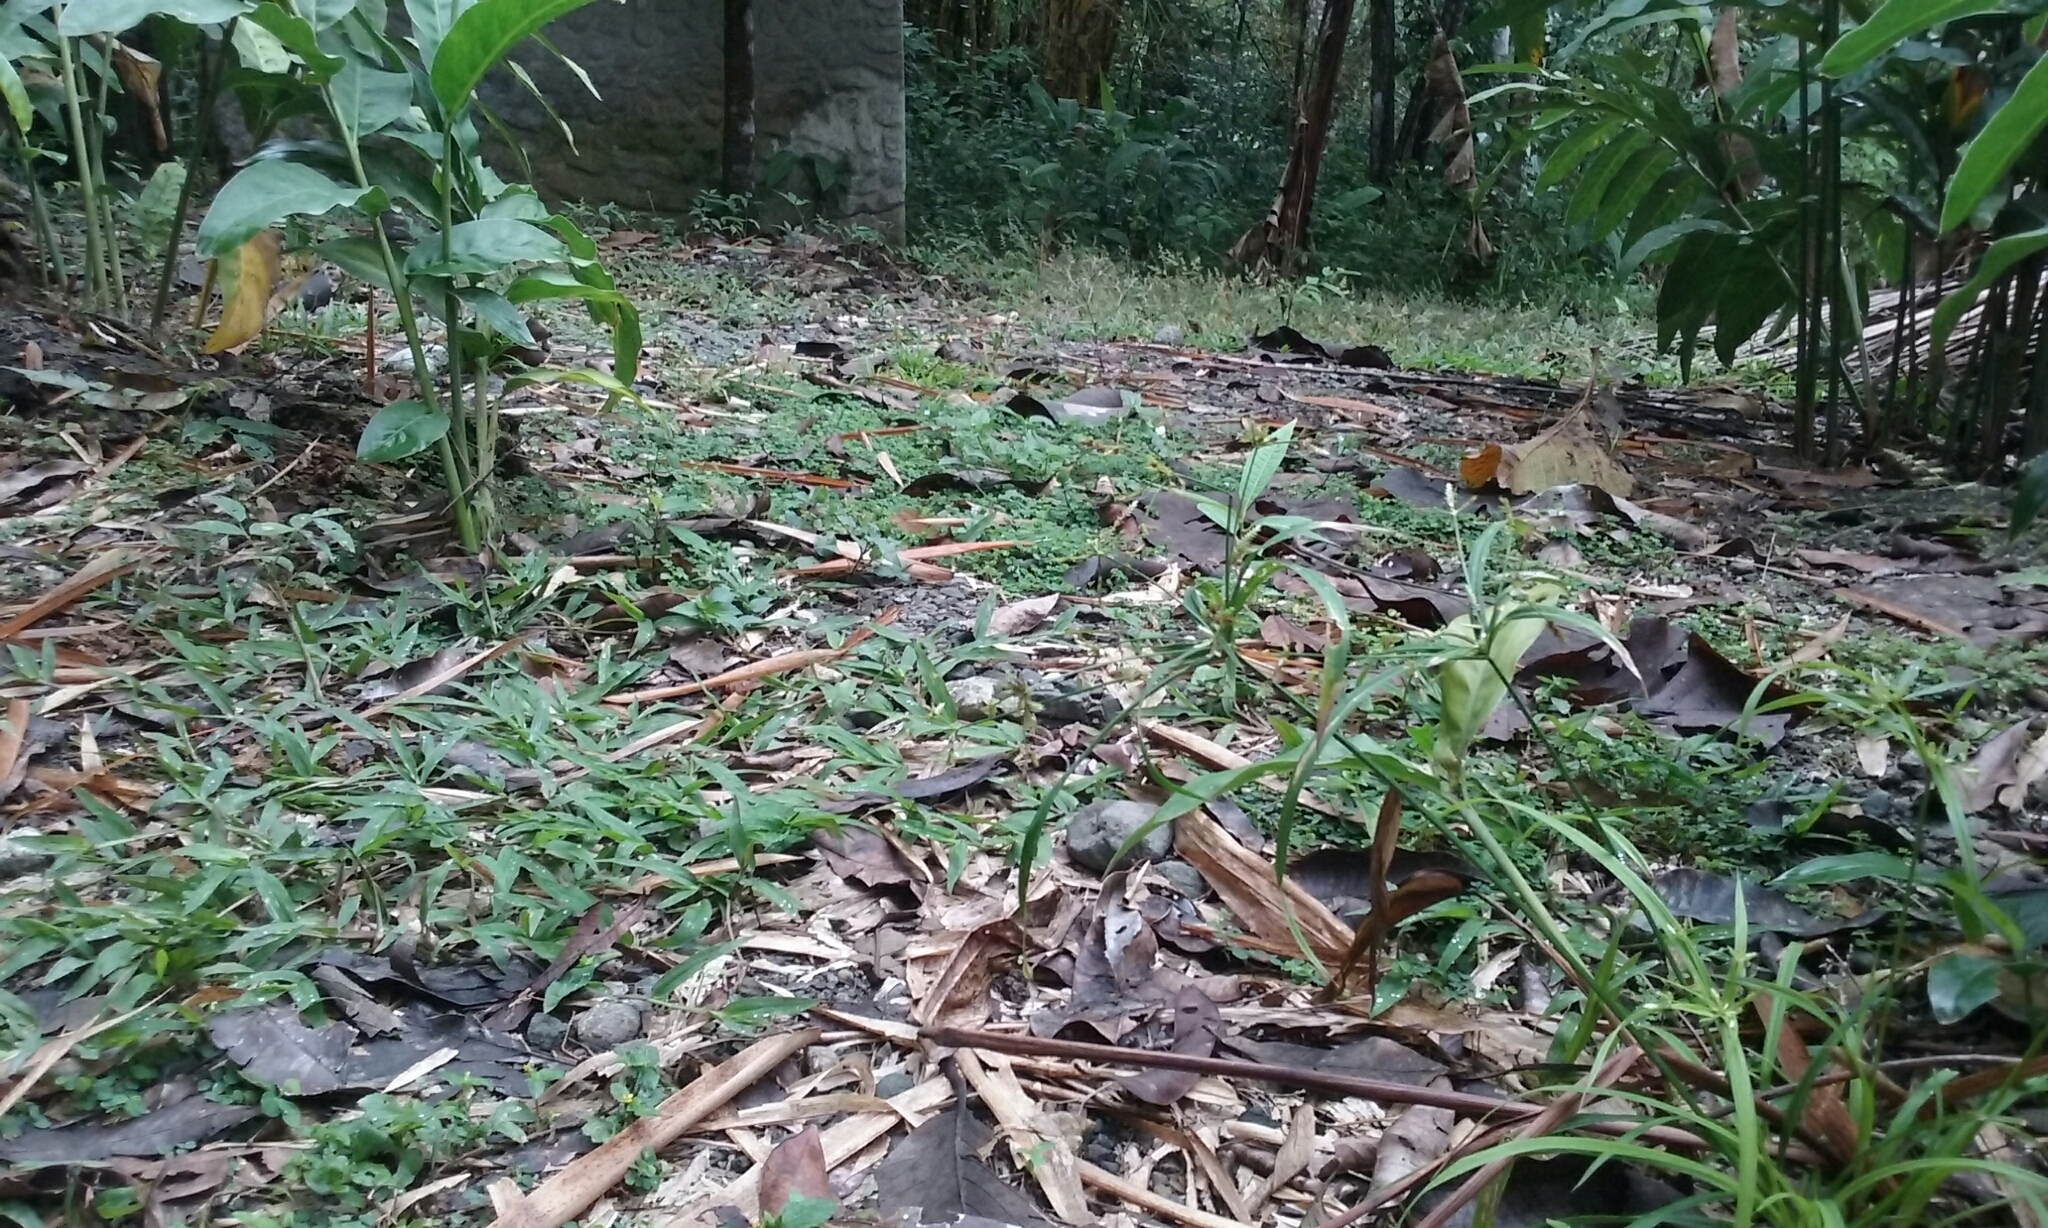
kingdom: Plantae
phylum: Tracheophyta
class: Magnoliopsida
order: Asterales
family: Asteraceae
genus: Synedrella
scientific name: Synedrella nodiflora
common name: Nodeweed
